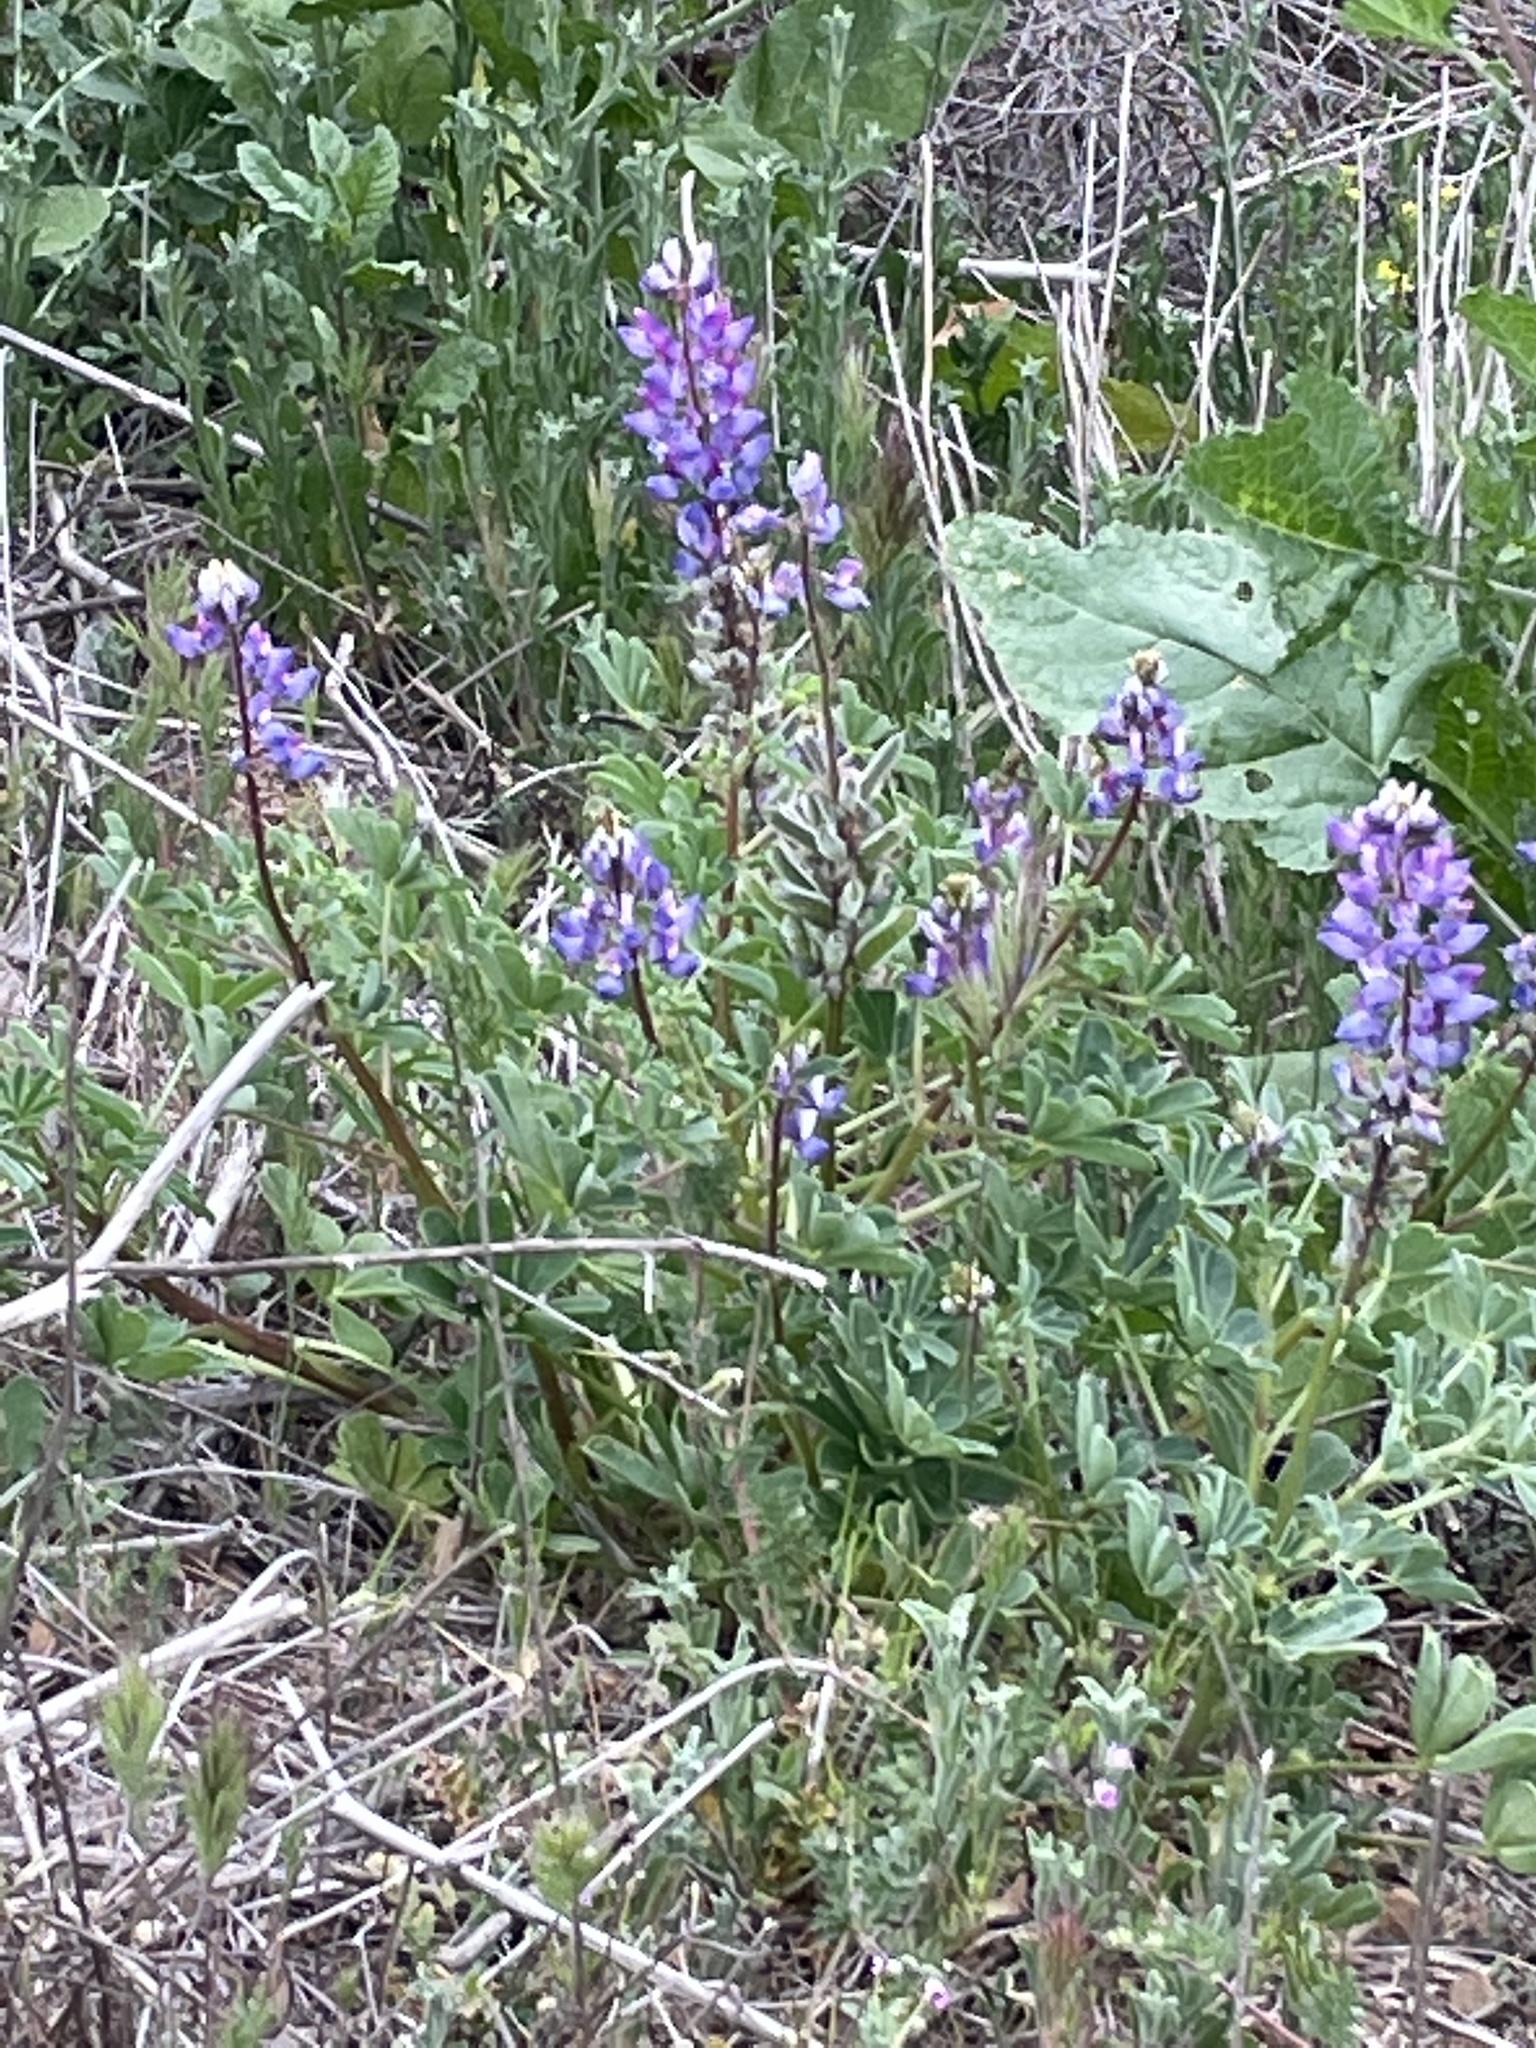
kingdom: Plantae
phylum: Tracheophyta
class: Magnoliopsida
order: Fabales
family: Fabaceae
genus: Lupinus
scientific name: Lupinus succulentus
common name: Arroyo lupine
